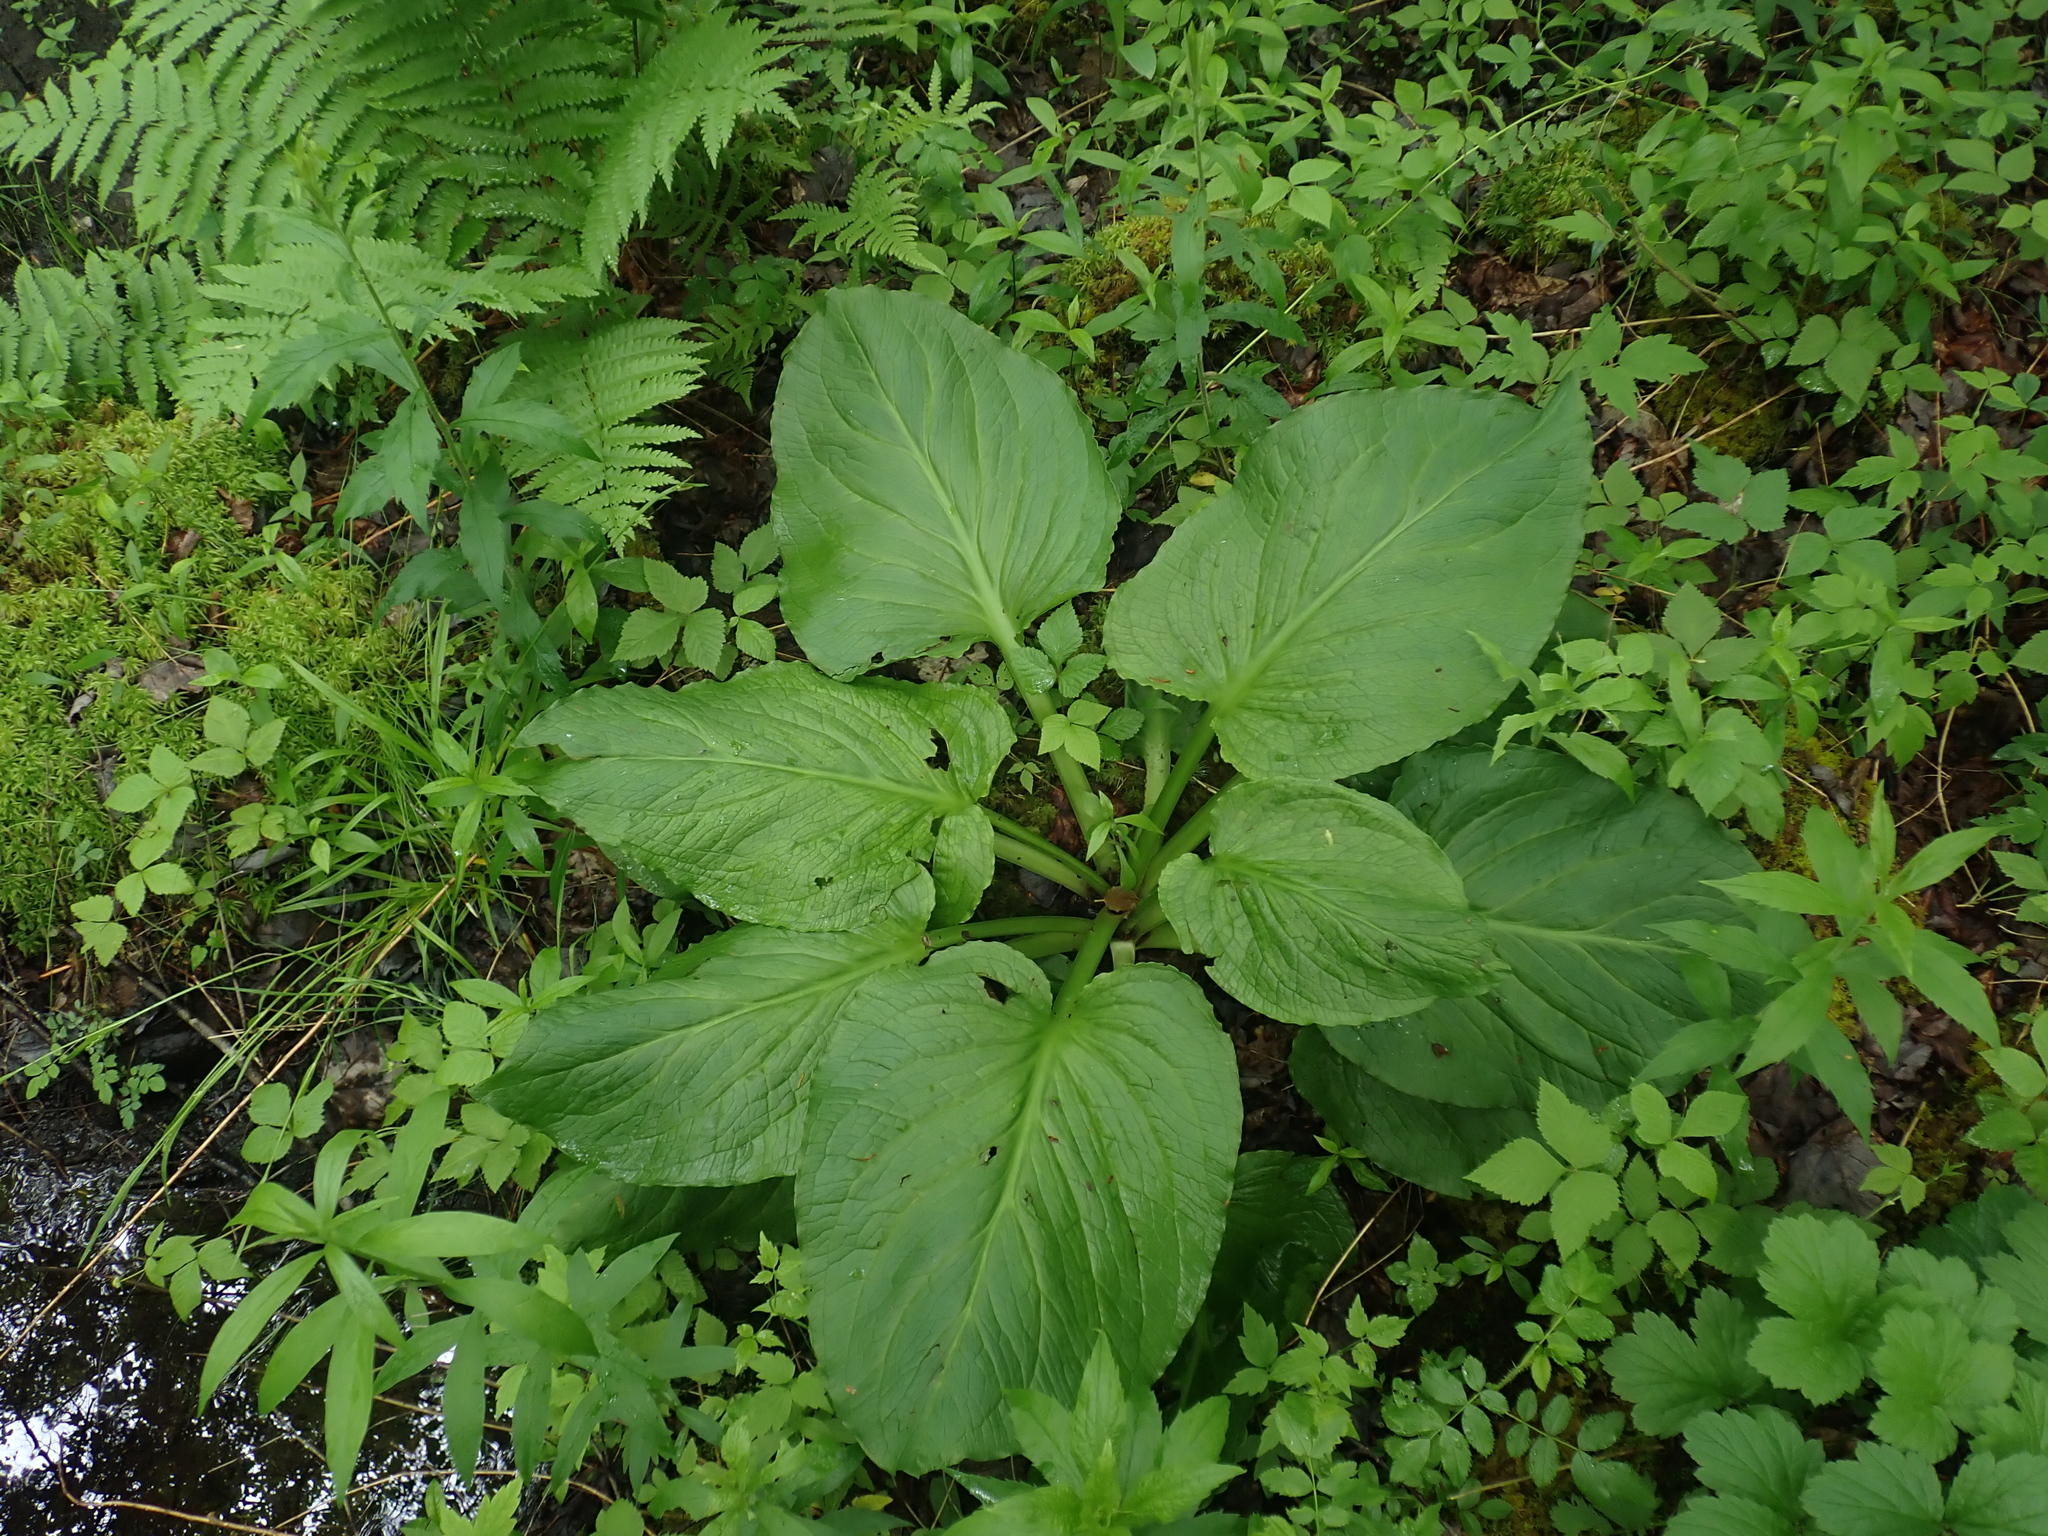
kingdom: Plantae
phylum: Tracheophyta
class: Liliopsida
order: Alismatales
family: Araceae
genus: Symplocarpus
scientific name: Symplocarpus foetidus
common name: Eastern skunk cabbage
